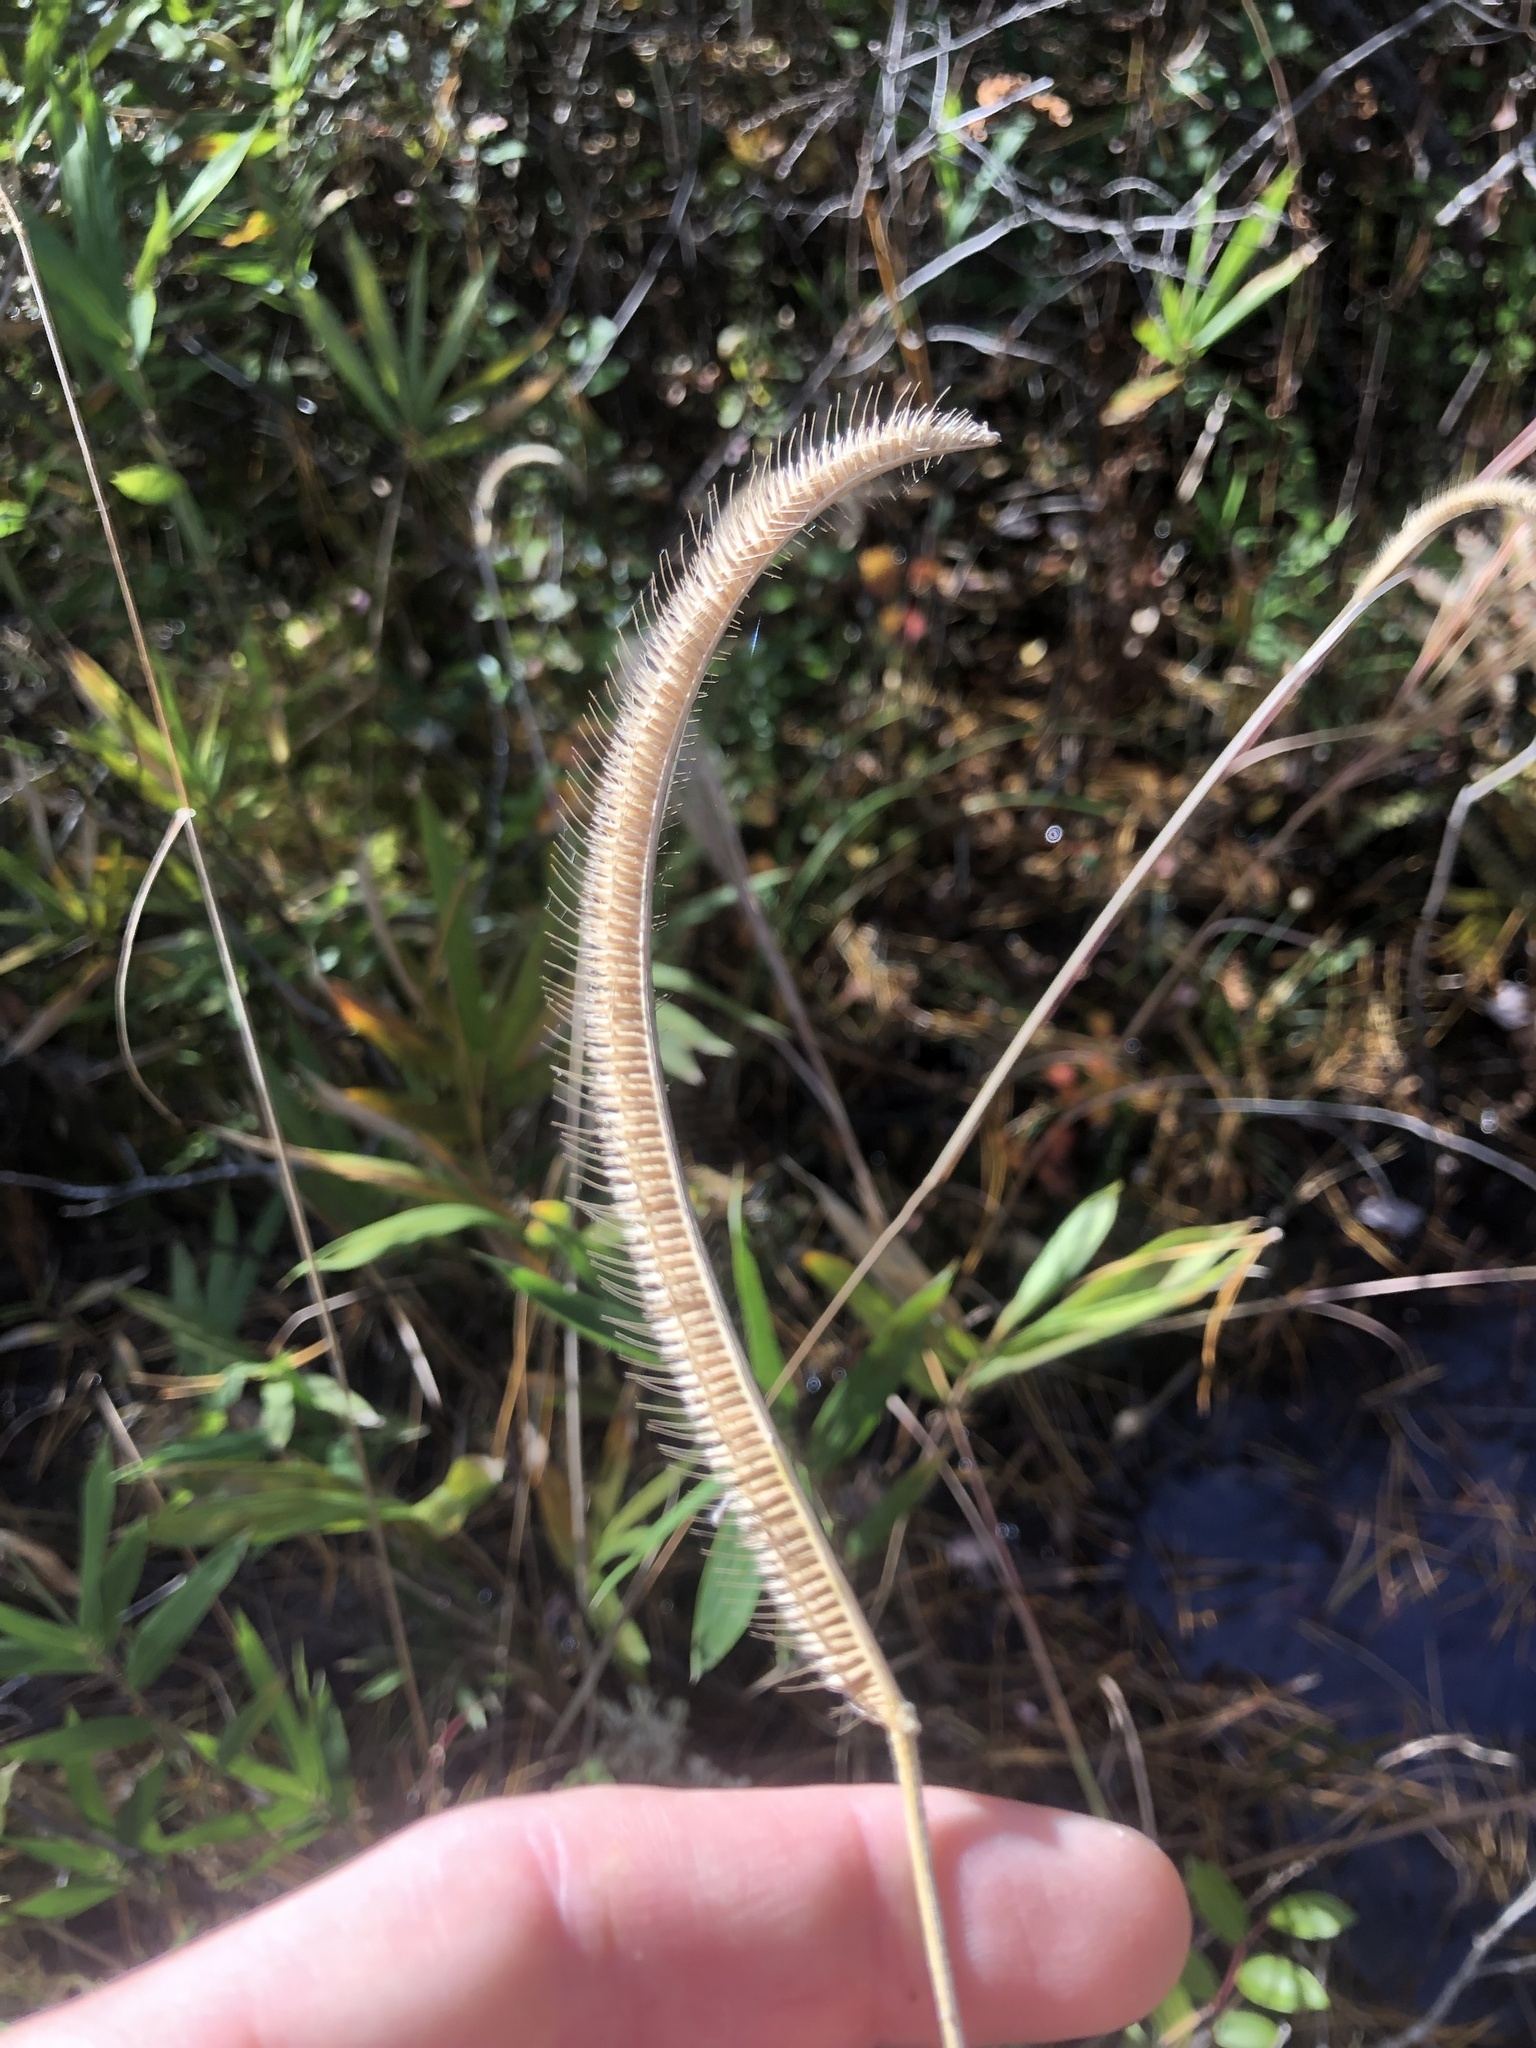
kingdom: Plantae
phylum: Tracheophyta
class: Liliopsida
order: Poales
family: Poaceae
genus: Ctenium
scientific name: Ctenium aromaticum
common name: Toothache grass
